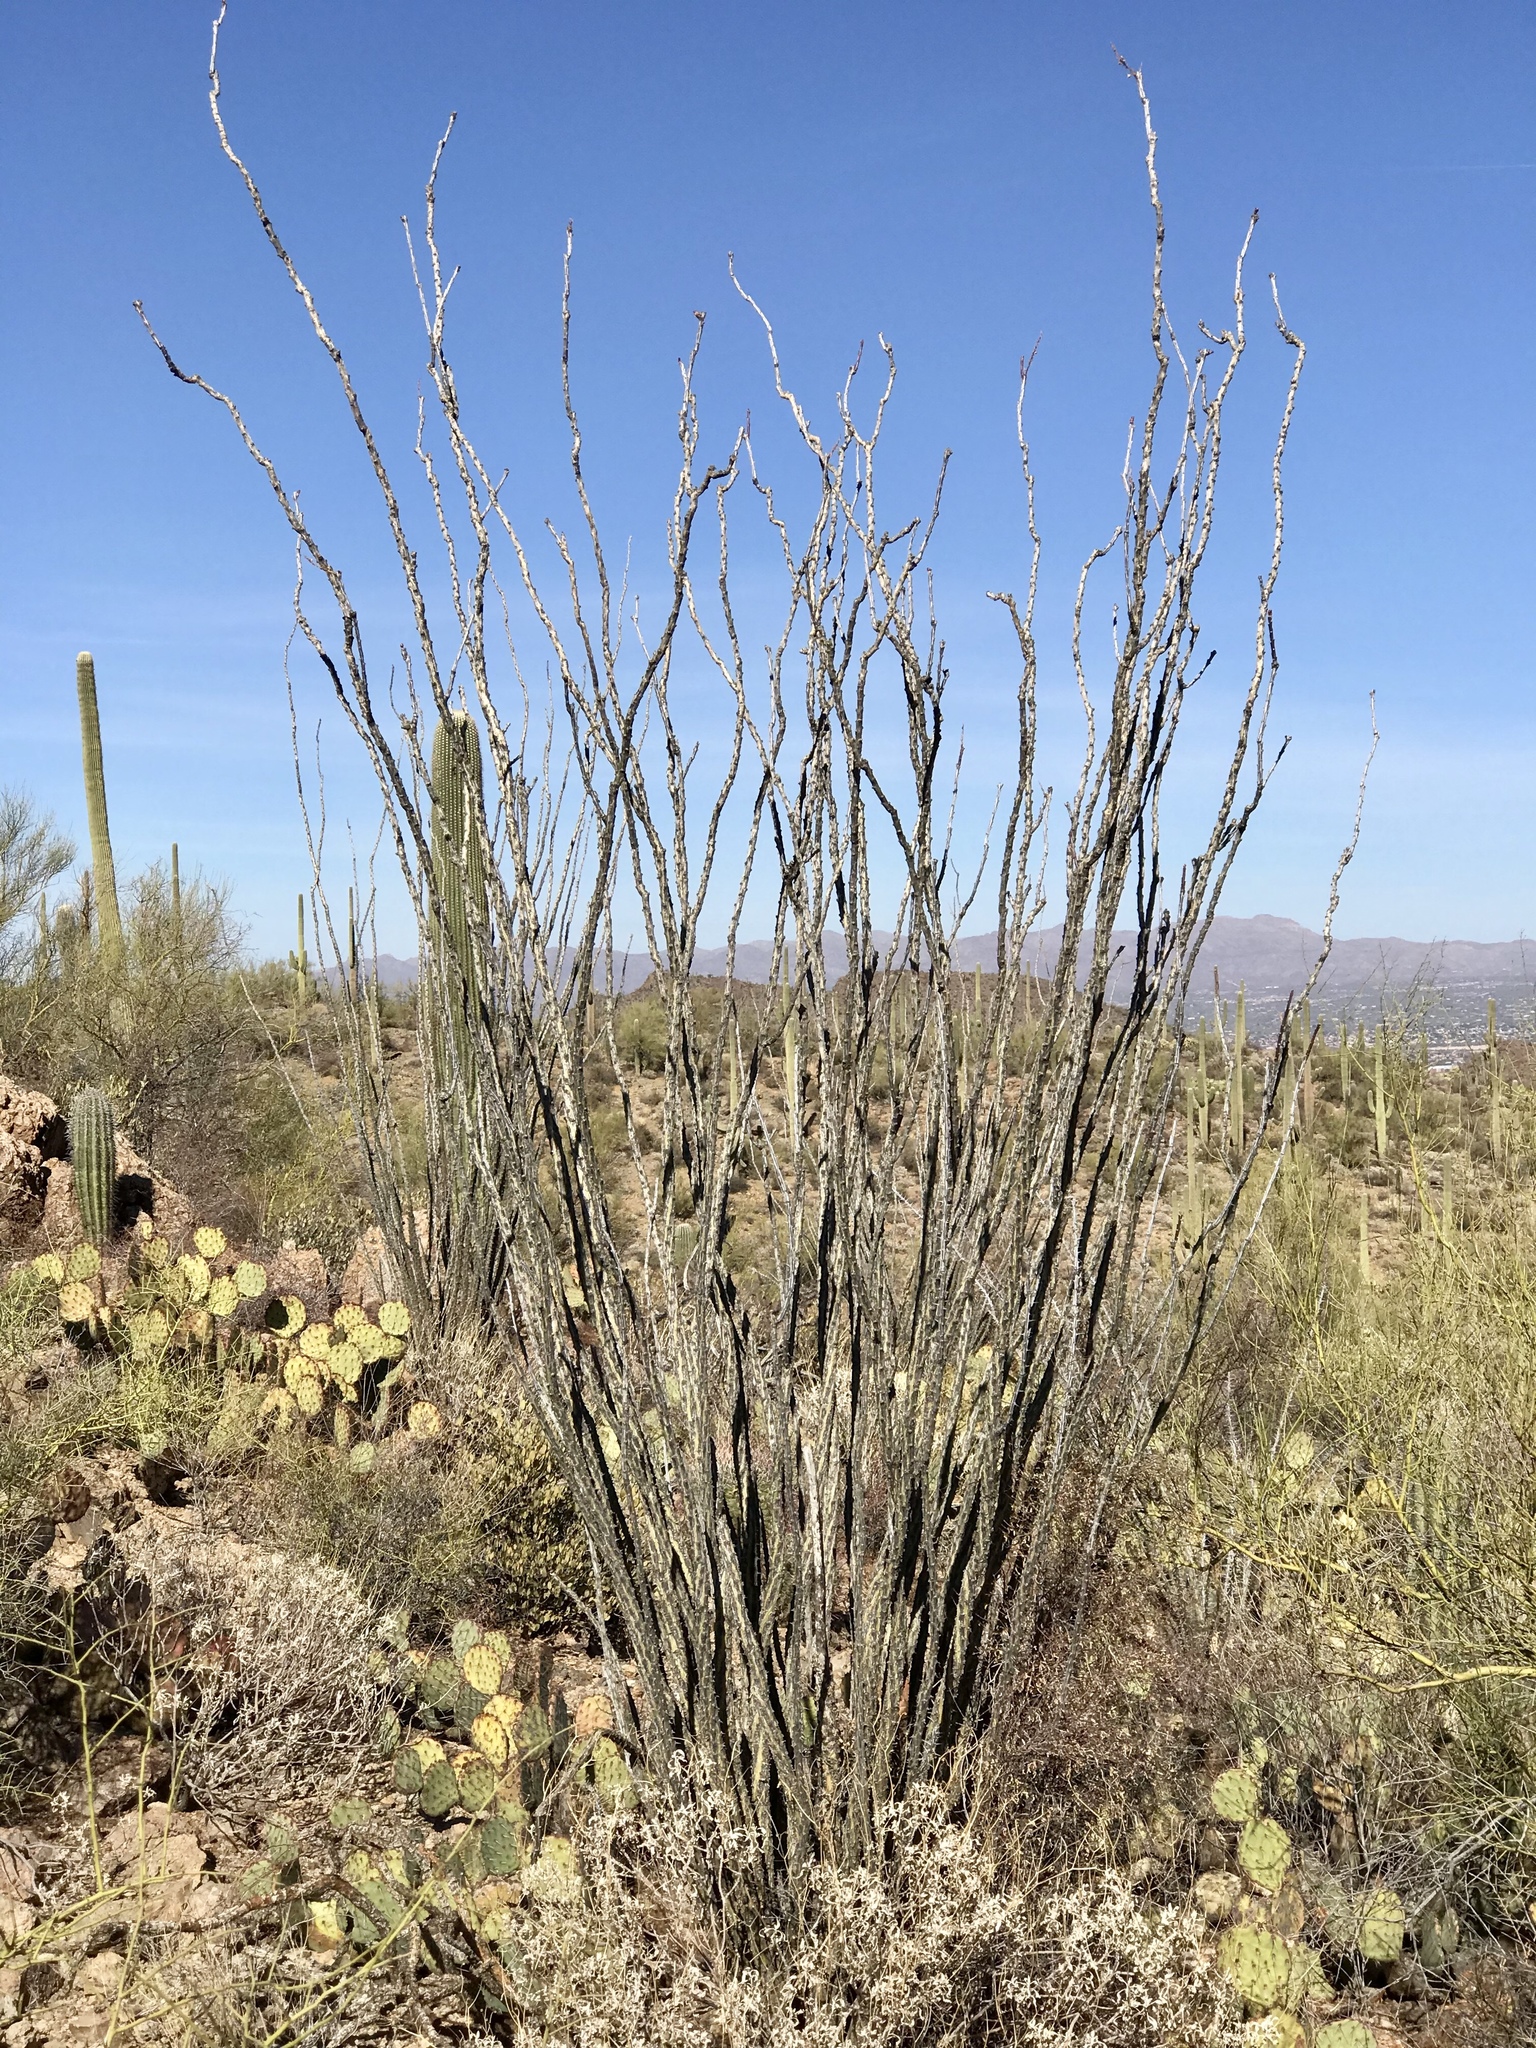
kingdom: Plantae
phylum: Tracheophyta
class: Magnoliopsida
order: Ericales
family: Fouquieriaceae
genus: Fouquieria
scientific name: Fouquieria splendens
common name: Vine-cactus
